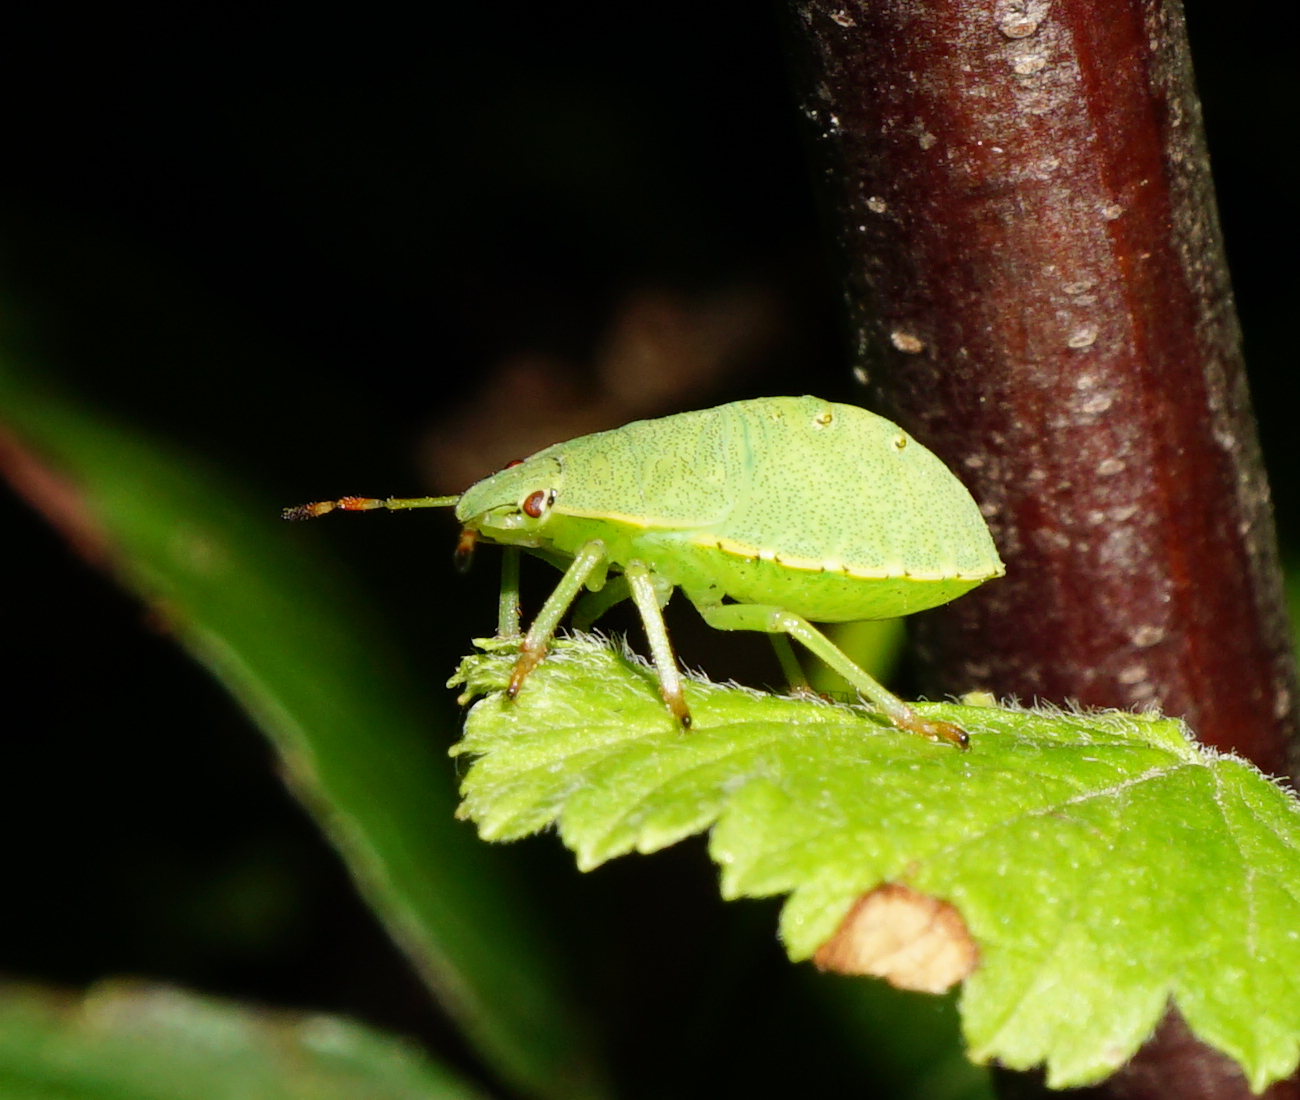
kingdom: Animalia
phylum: Arthropoda
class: Insecta
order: Hemiptera
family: Pentatomidae
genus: Palomena
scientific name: Palomena prasina
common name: Green shieldbug
